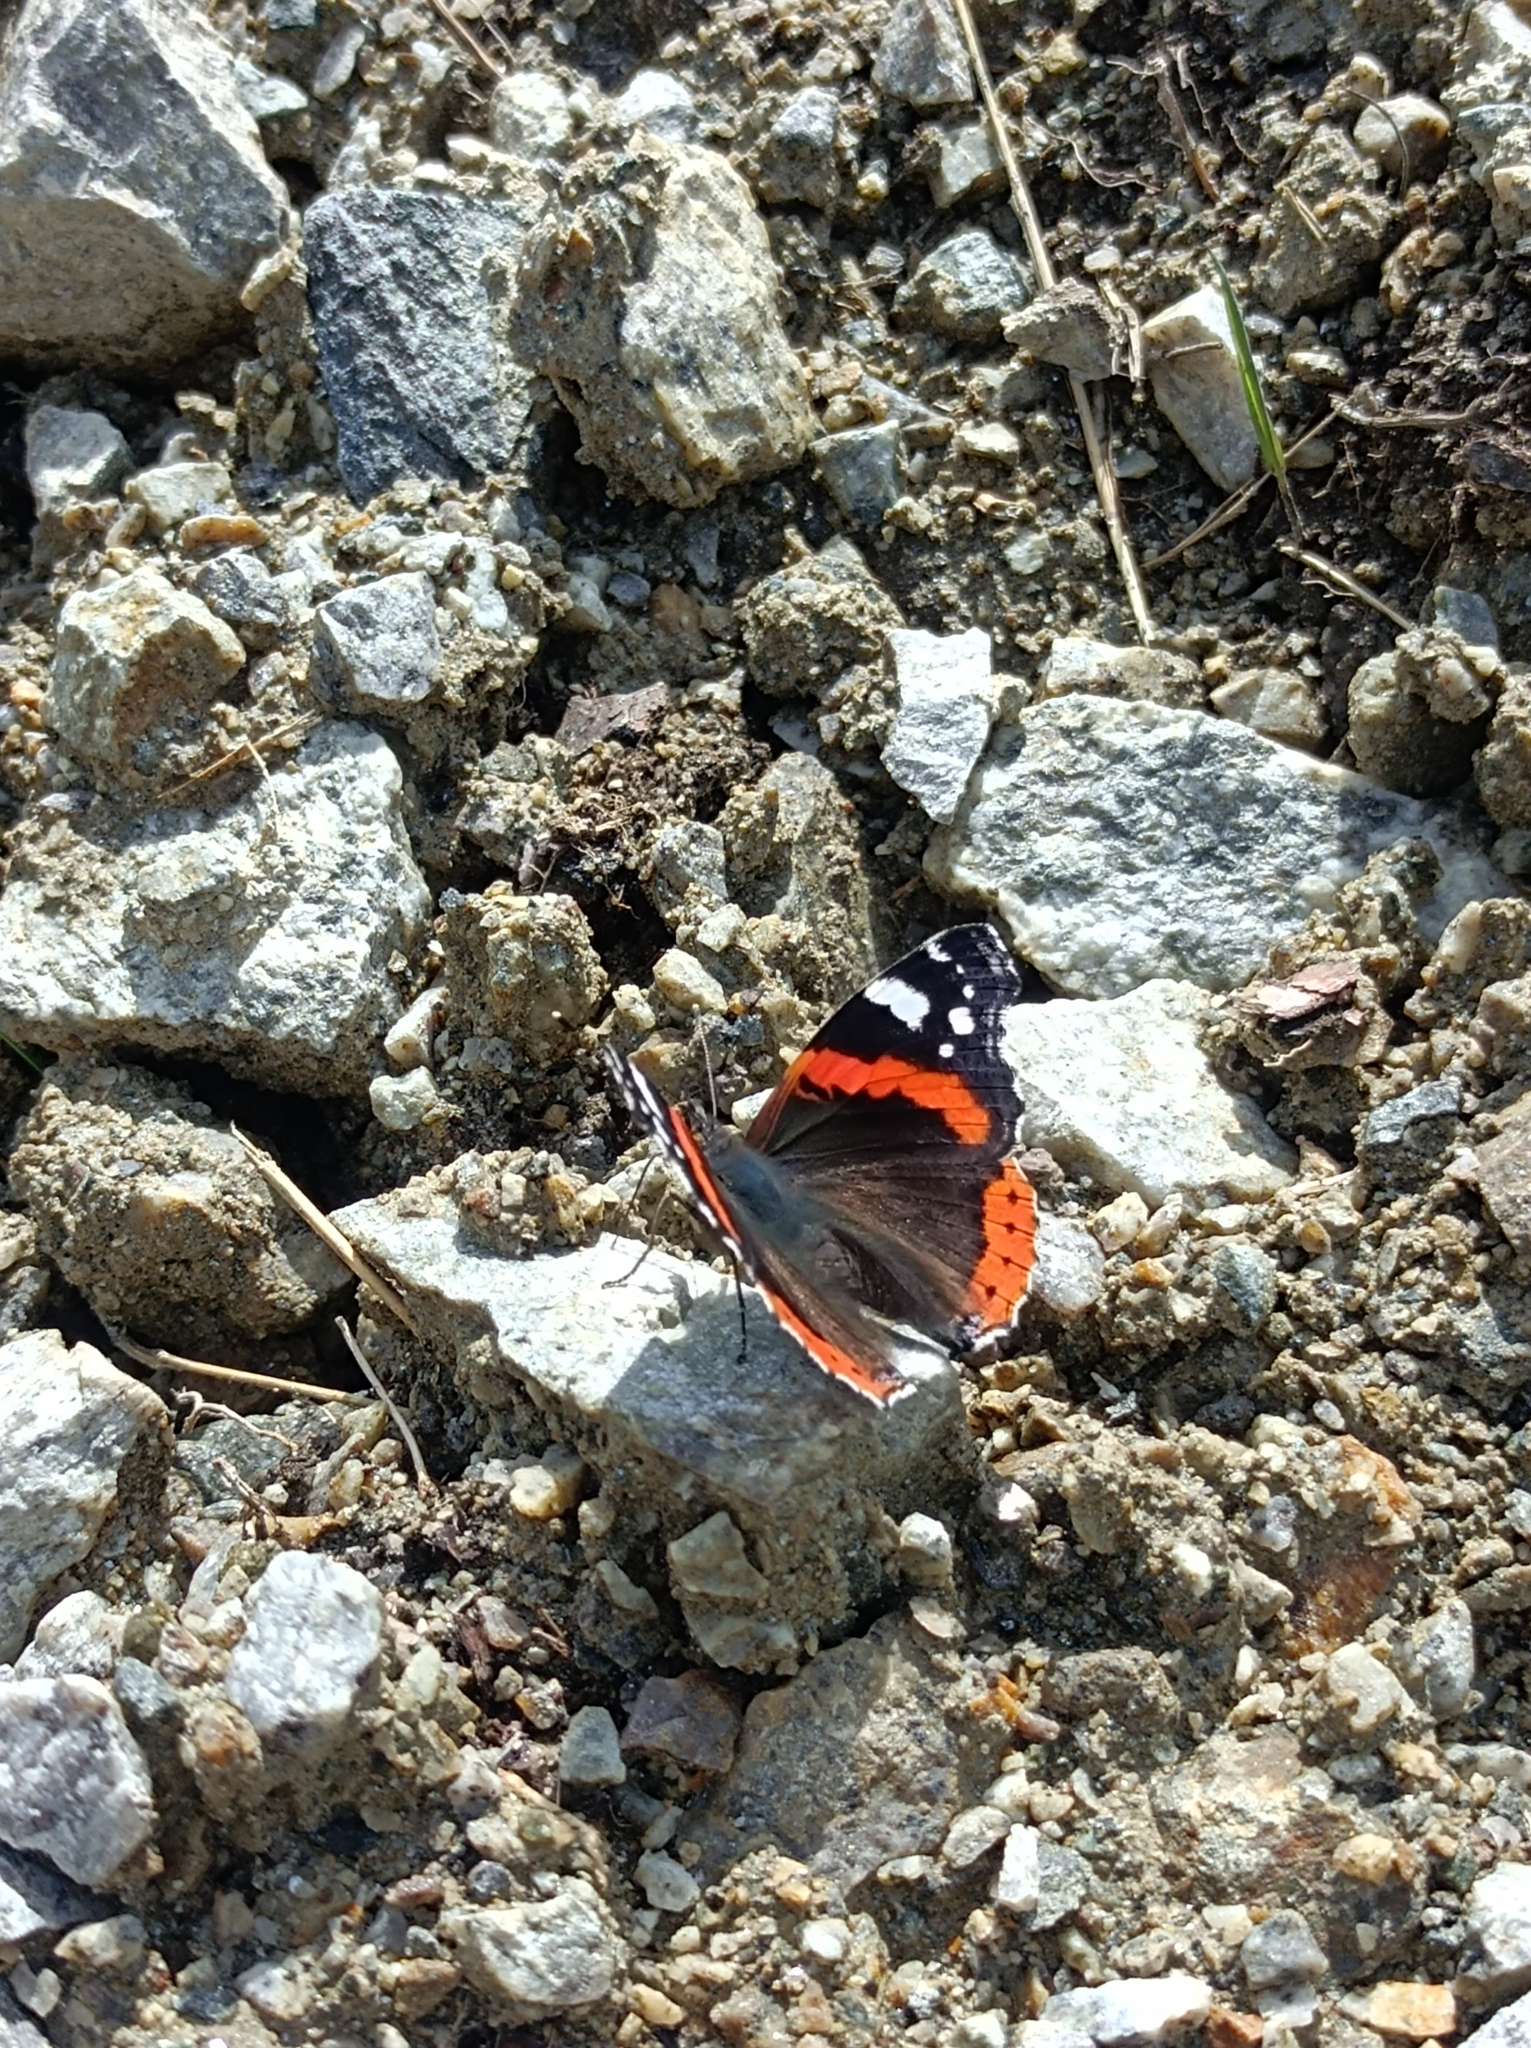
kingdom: Animalia
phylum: Arthropoda
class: Insecta
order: Lepidoptera
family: Nymphalidae
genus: Vanessa
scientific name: Vanessa atalanta
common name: Red admiral
